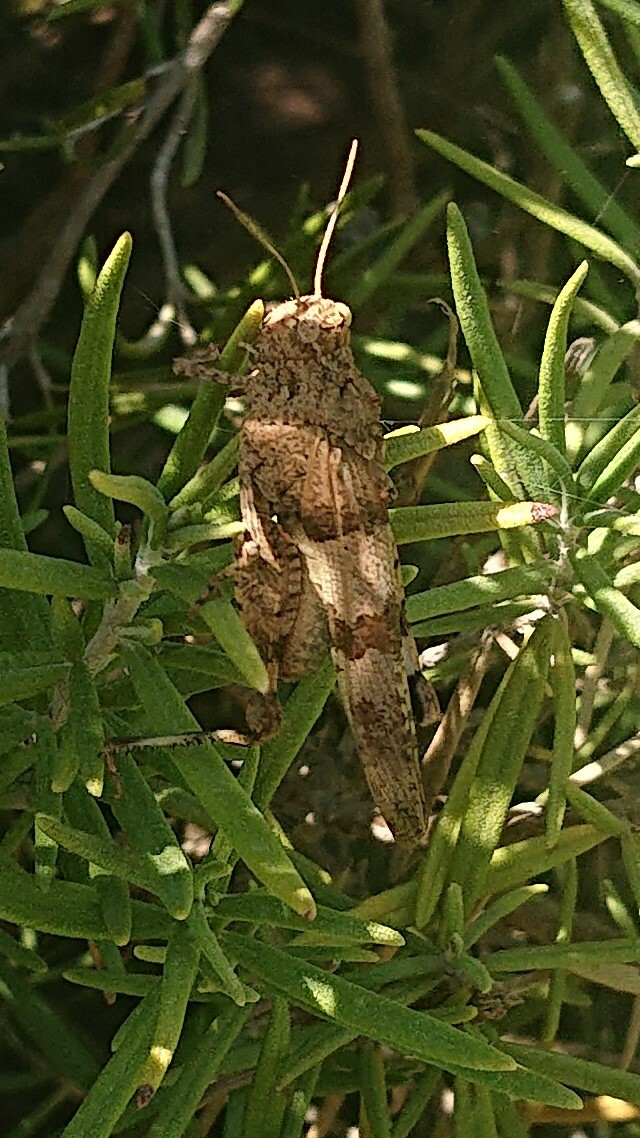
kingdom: Animalia
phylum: Arthropoda
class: Insecta
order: Orthoptera
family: Acrididae
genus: Oedipoda
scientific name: Oedipoda caerulescens
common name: Blue-winged grasshopper
